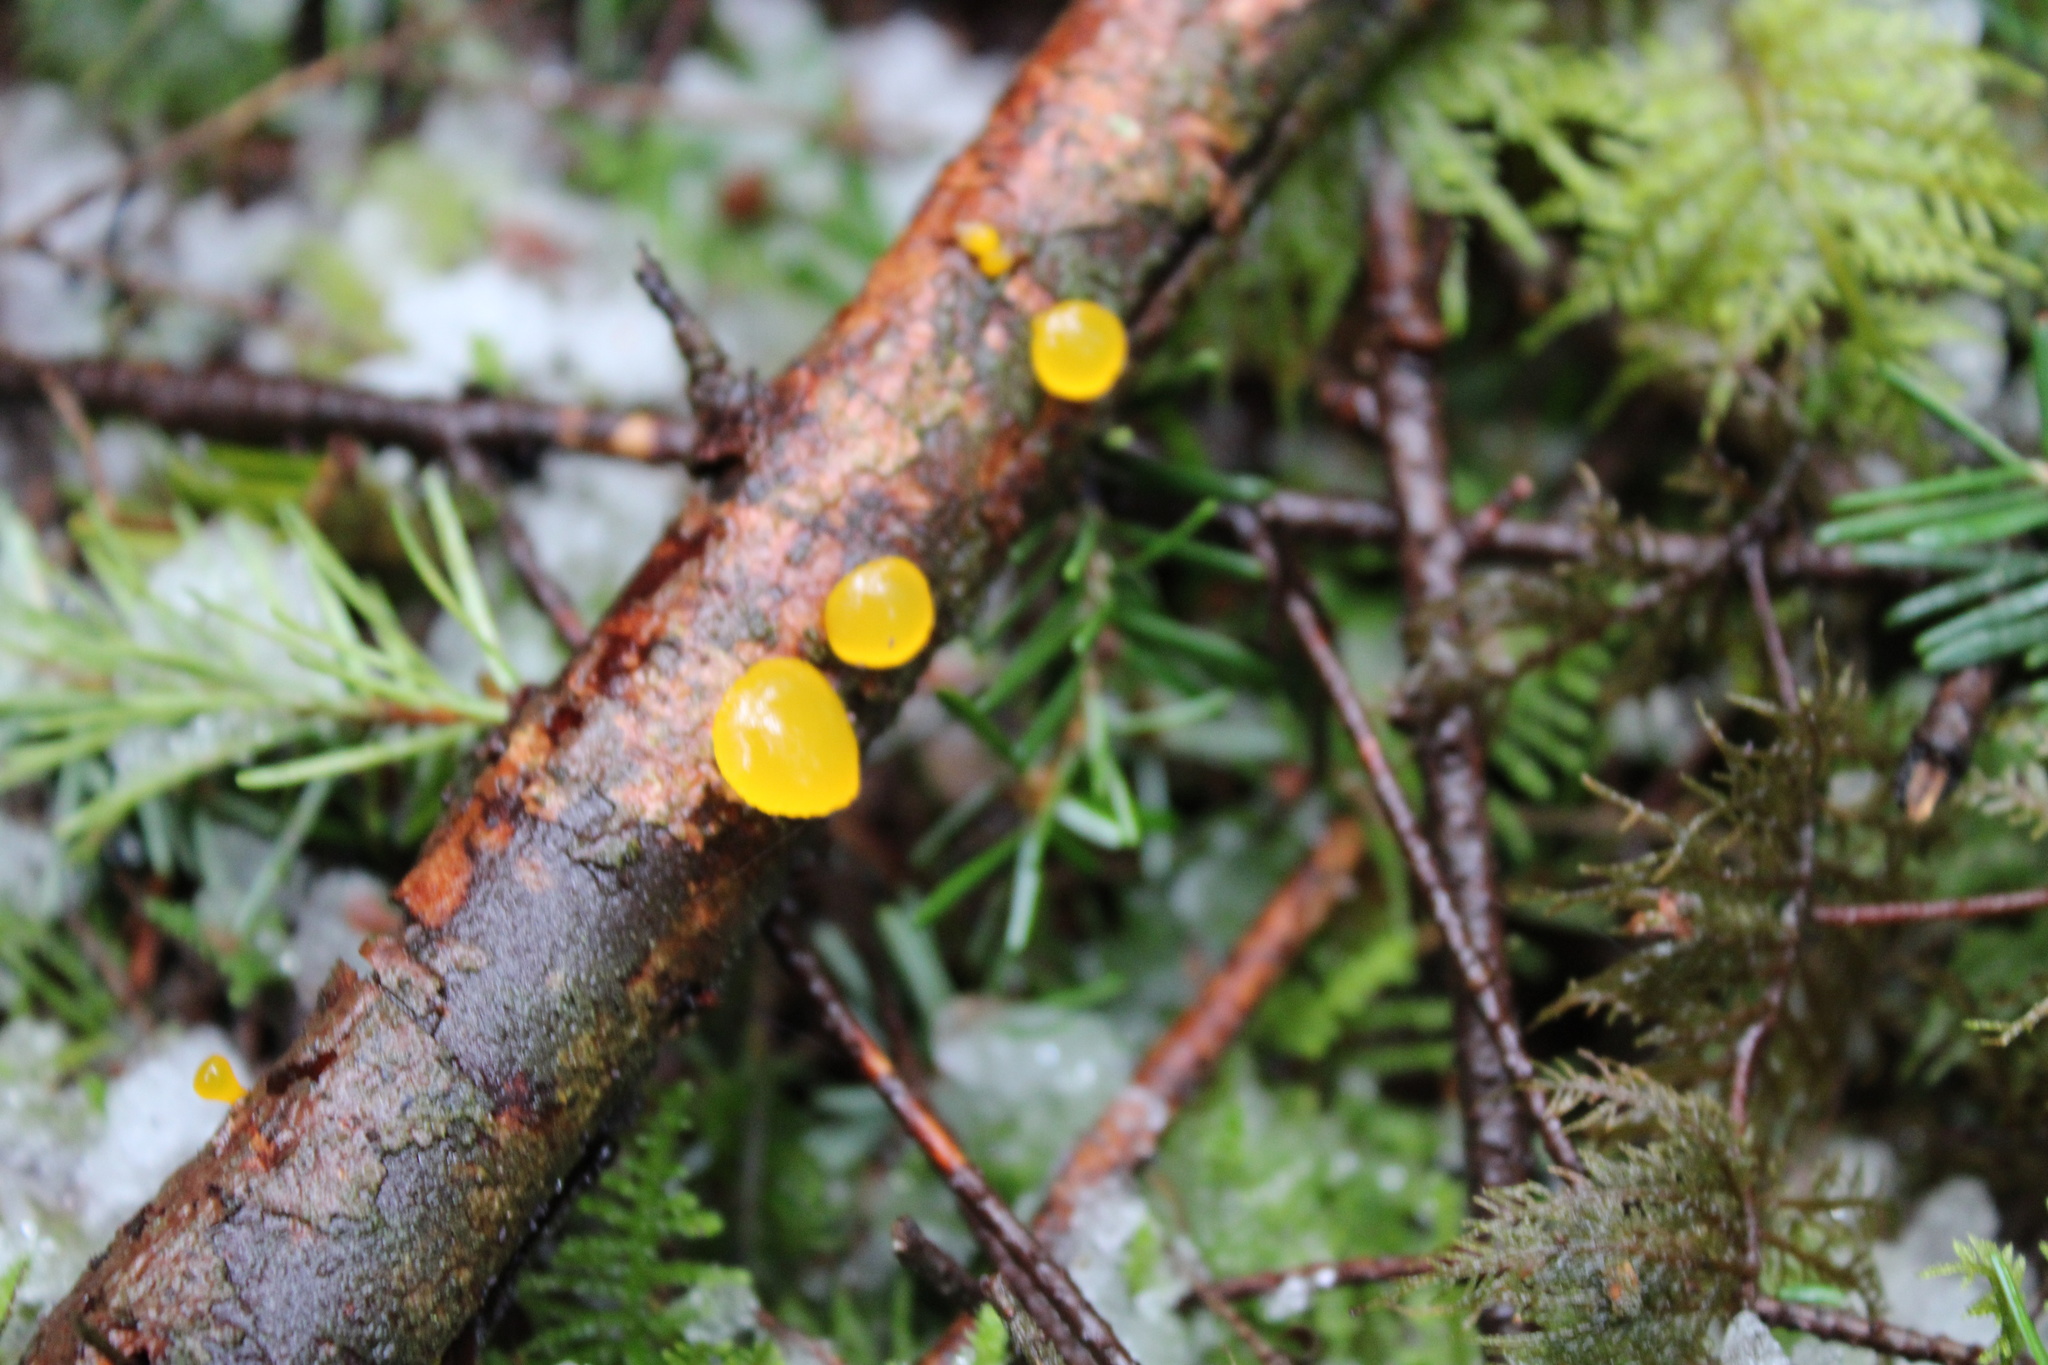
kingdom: Fungi
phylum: Basidiomycota
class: Dacrymycetes
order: Dacrymycetales
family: Dacrymycetaceae
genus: Guepiniopsis
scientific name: Guepiniopsis alpina
